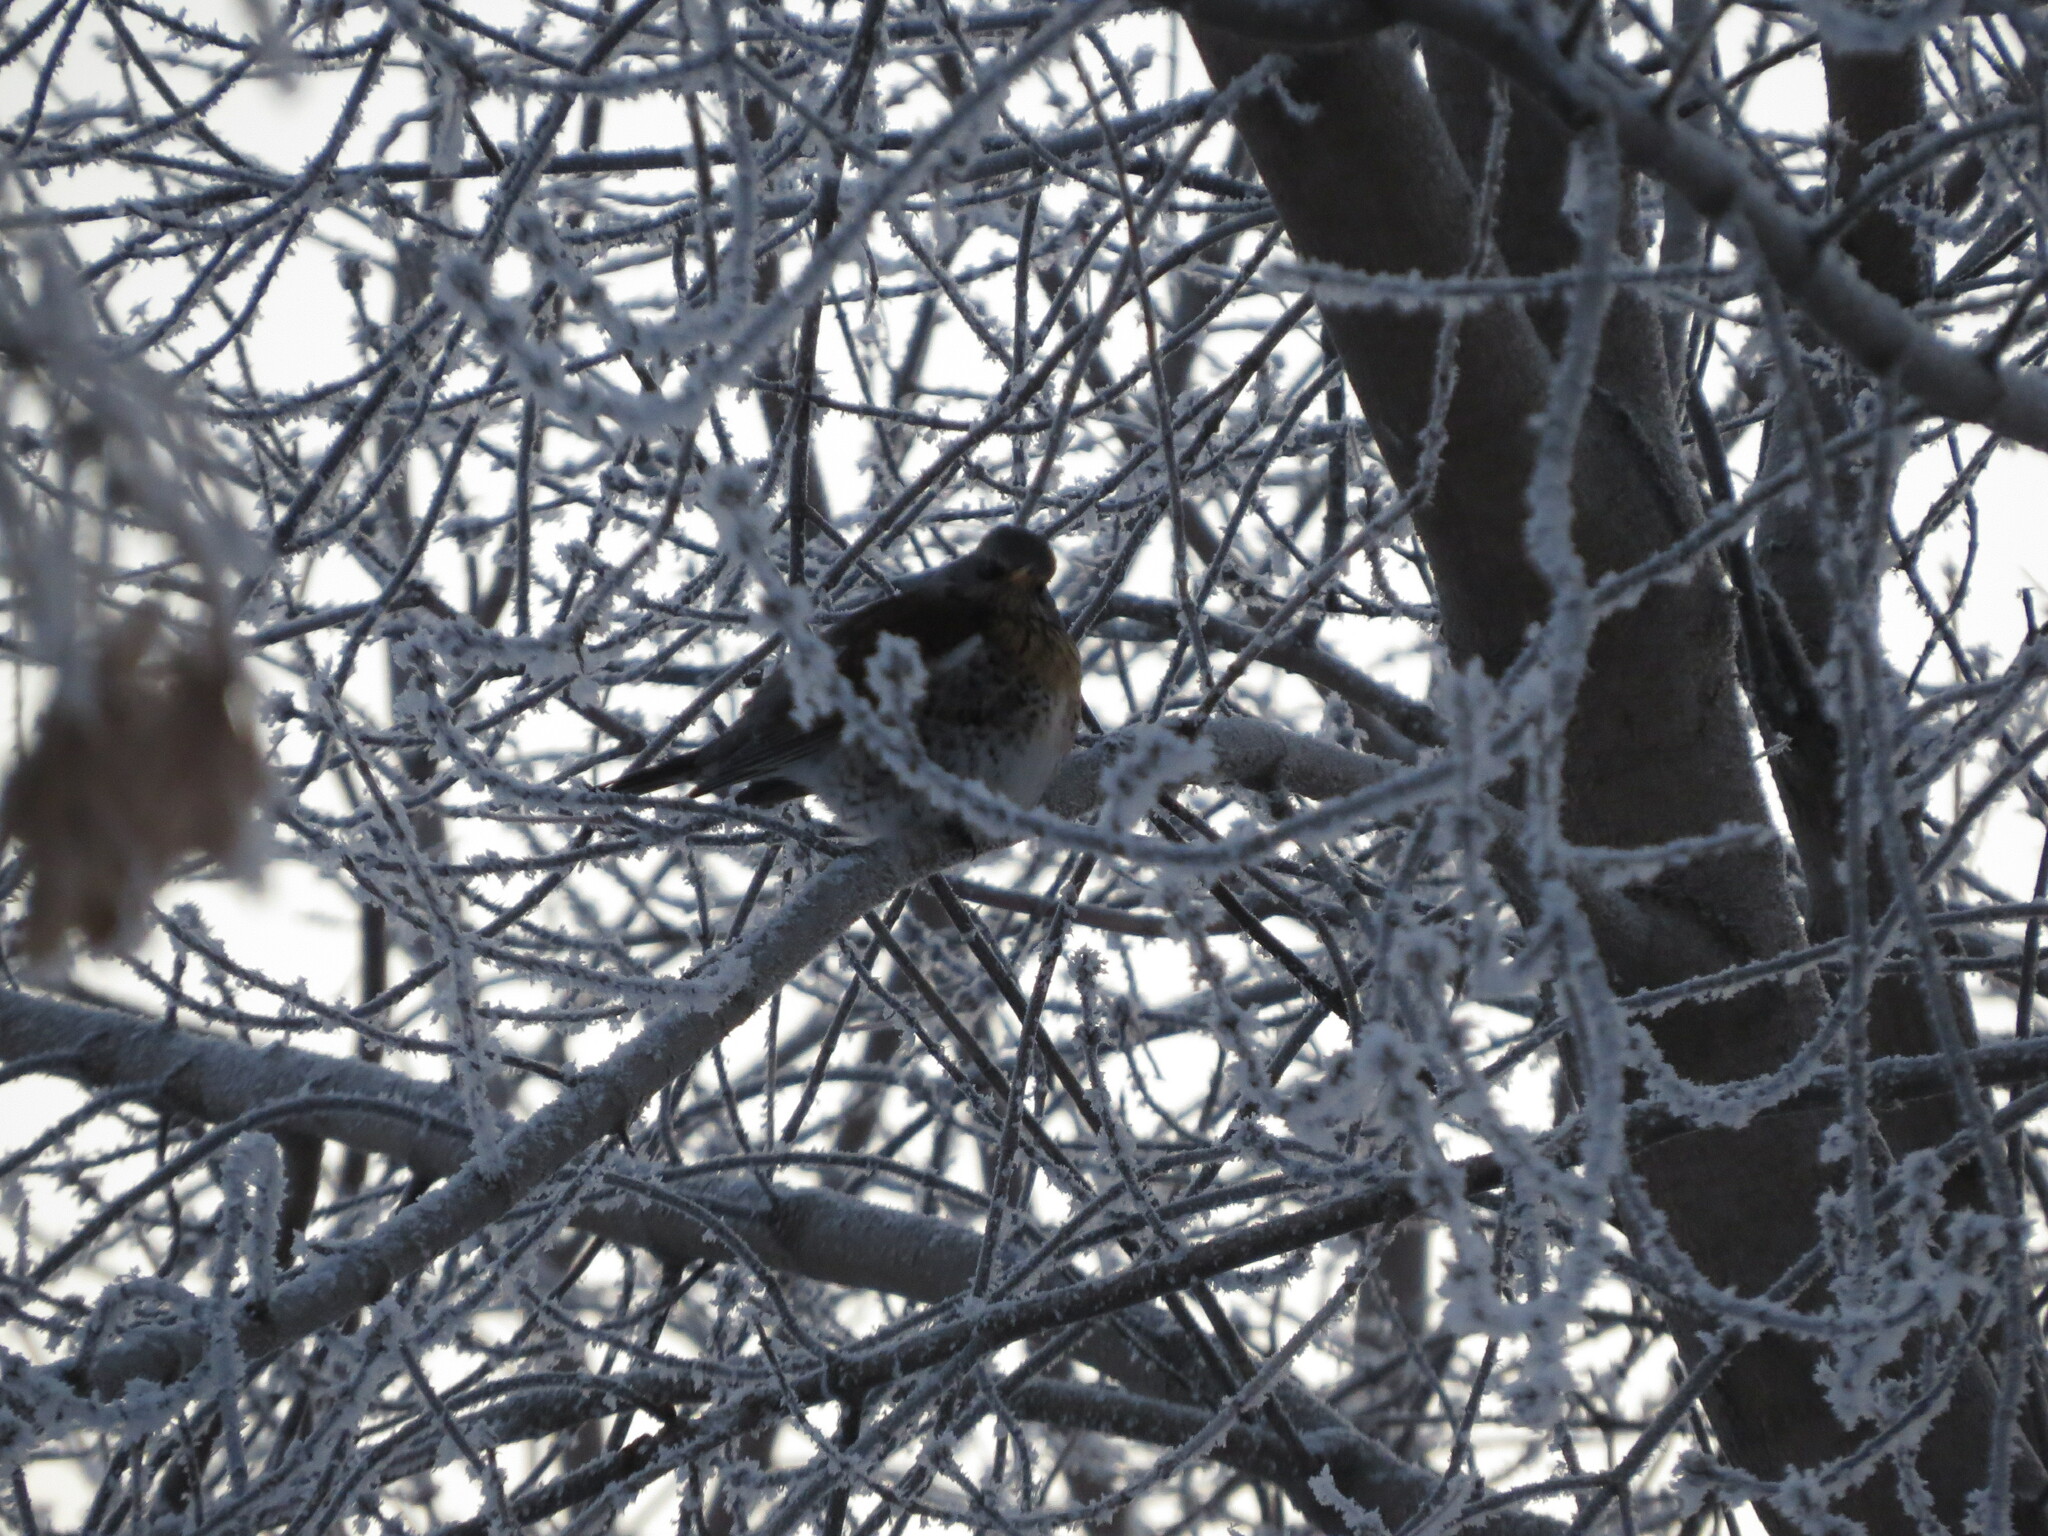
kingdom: Animalia
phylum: Chordata
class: Aves
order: Passeriformes
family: Turdidae
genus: Turdus
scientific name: Turdus pilaris
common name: Fieldfare
